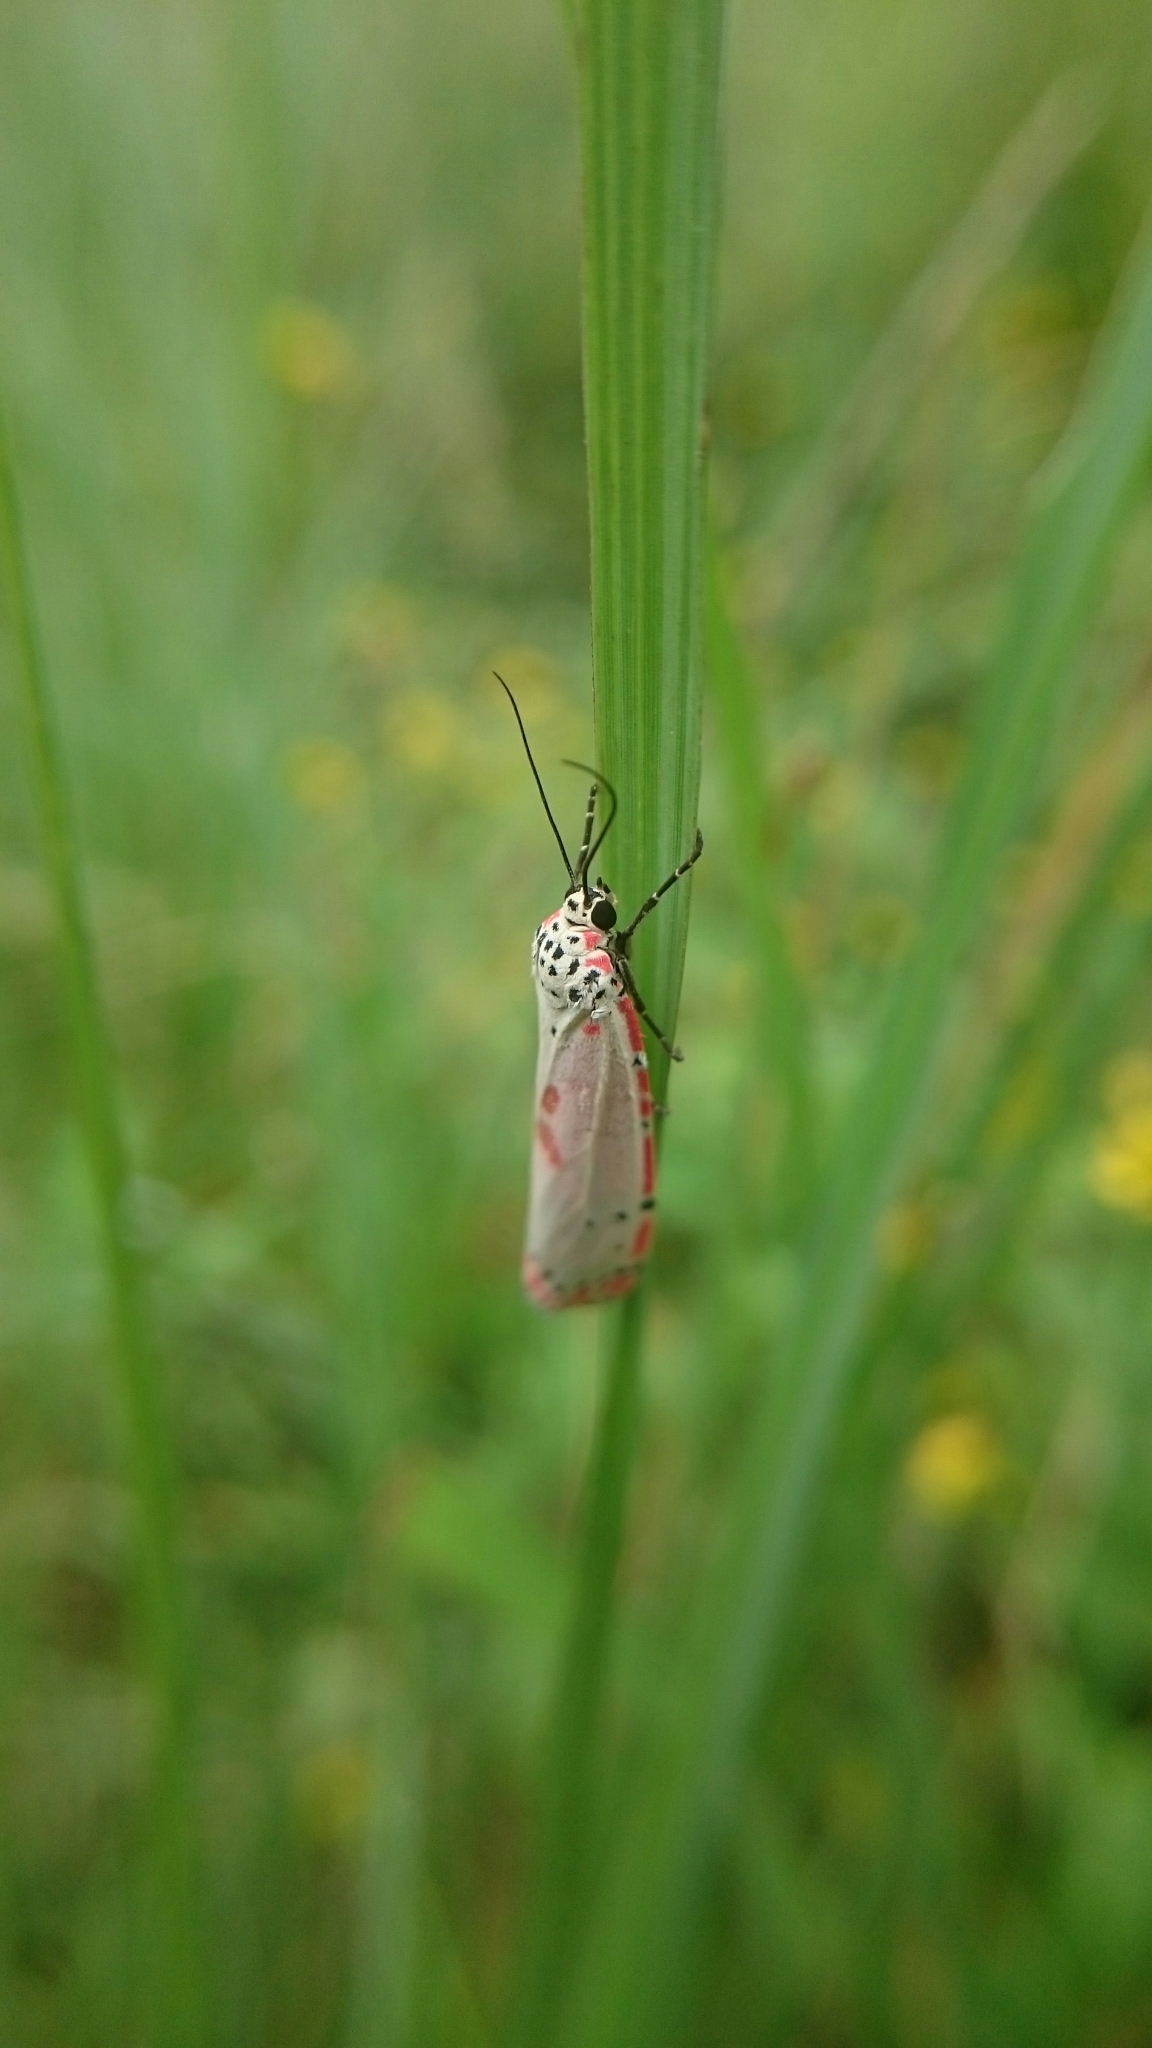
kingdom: Animalia
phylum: Arthropoda
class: Insecta
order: Lepidoptera
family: Erebidae
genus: Utetheisa
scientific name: Utetheisa ornatrix
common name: Beautiful utetheisa
